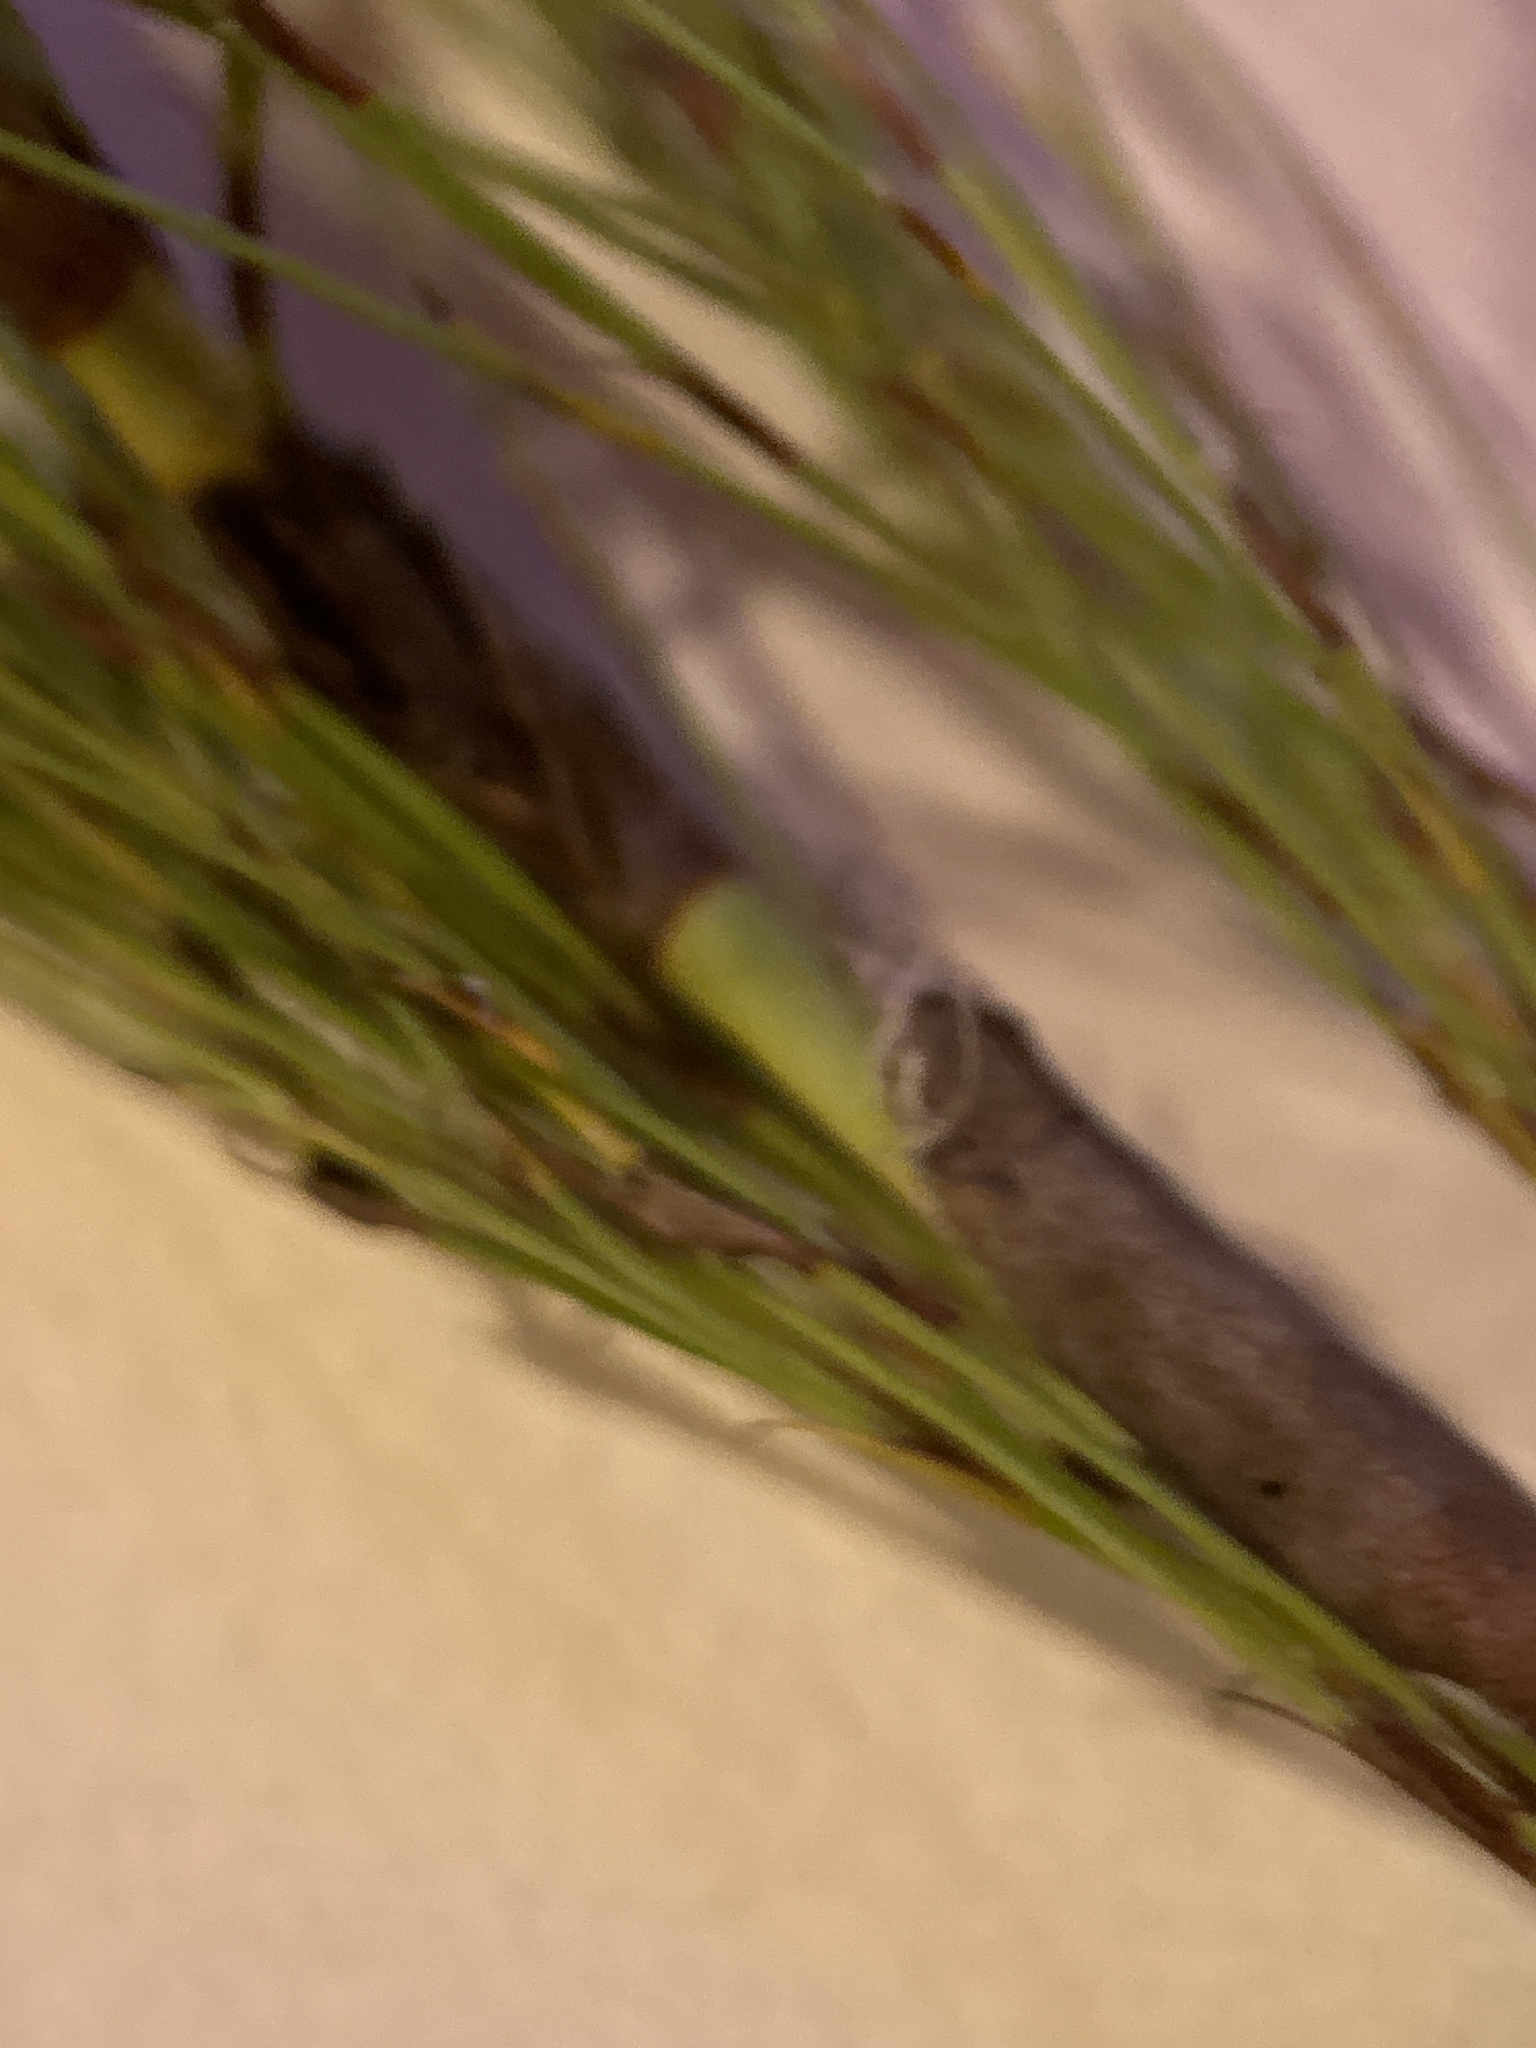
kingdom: Plantae
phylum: Tracheophyta
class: Liliopsida
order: Poales
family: Restionaceae
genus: Restio
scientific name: Restio leptoclados
